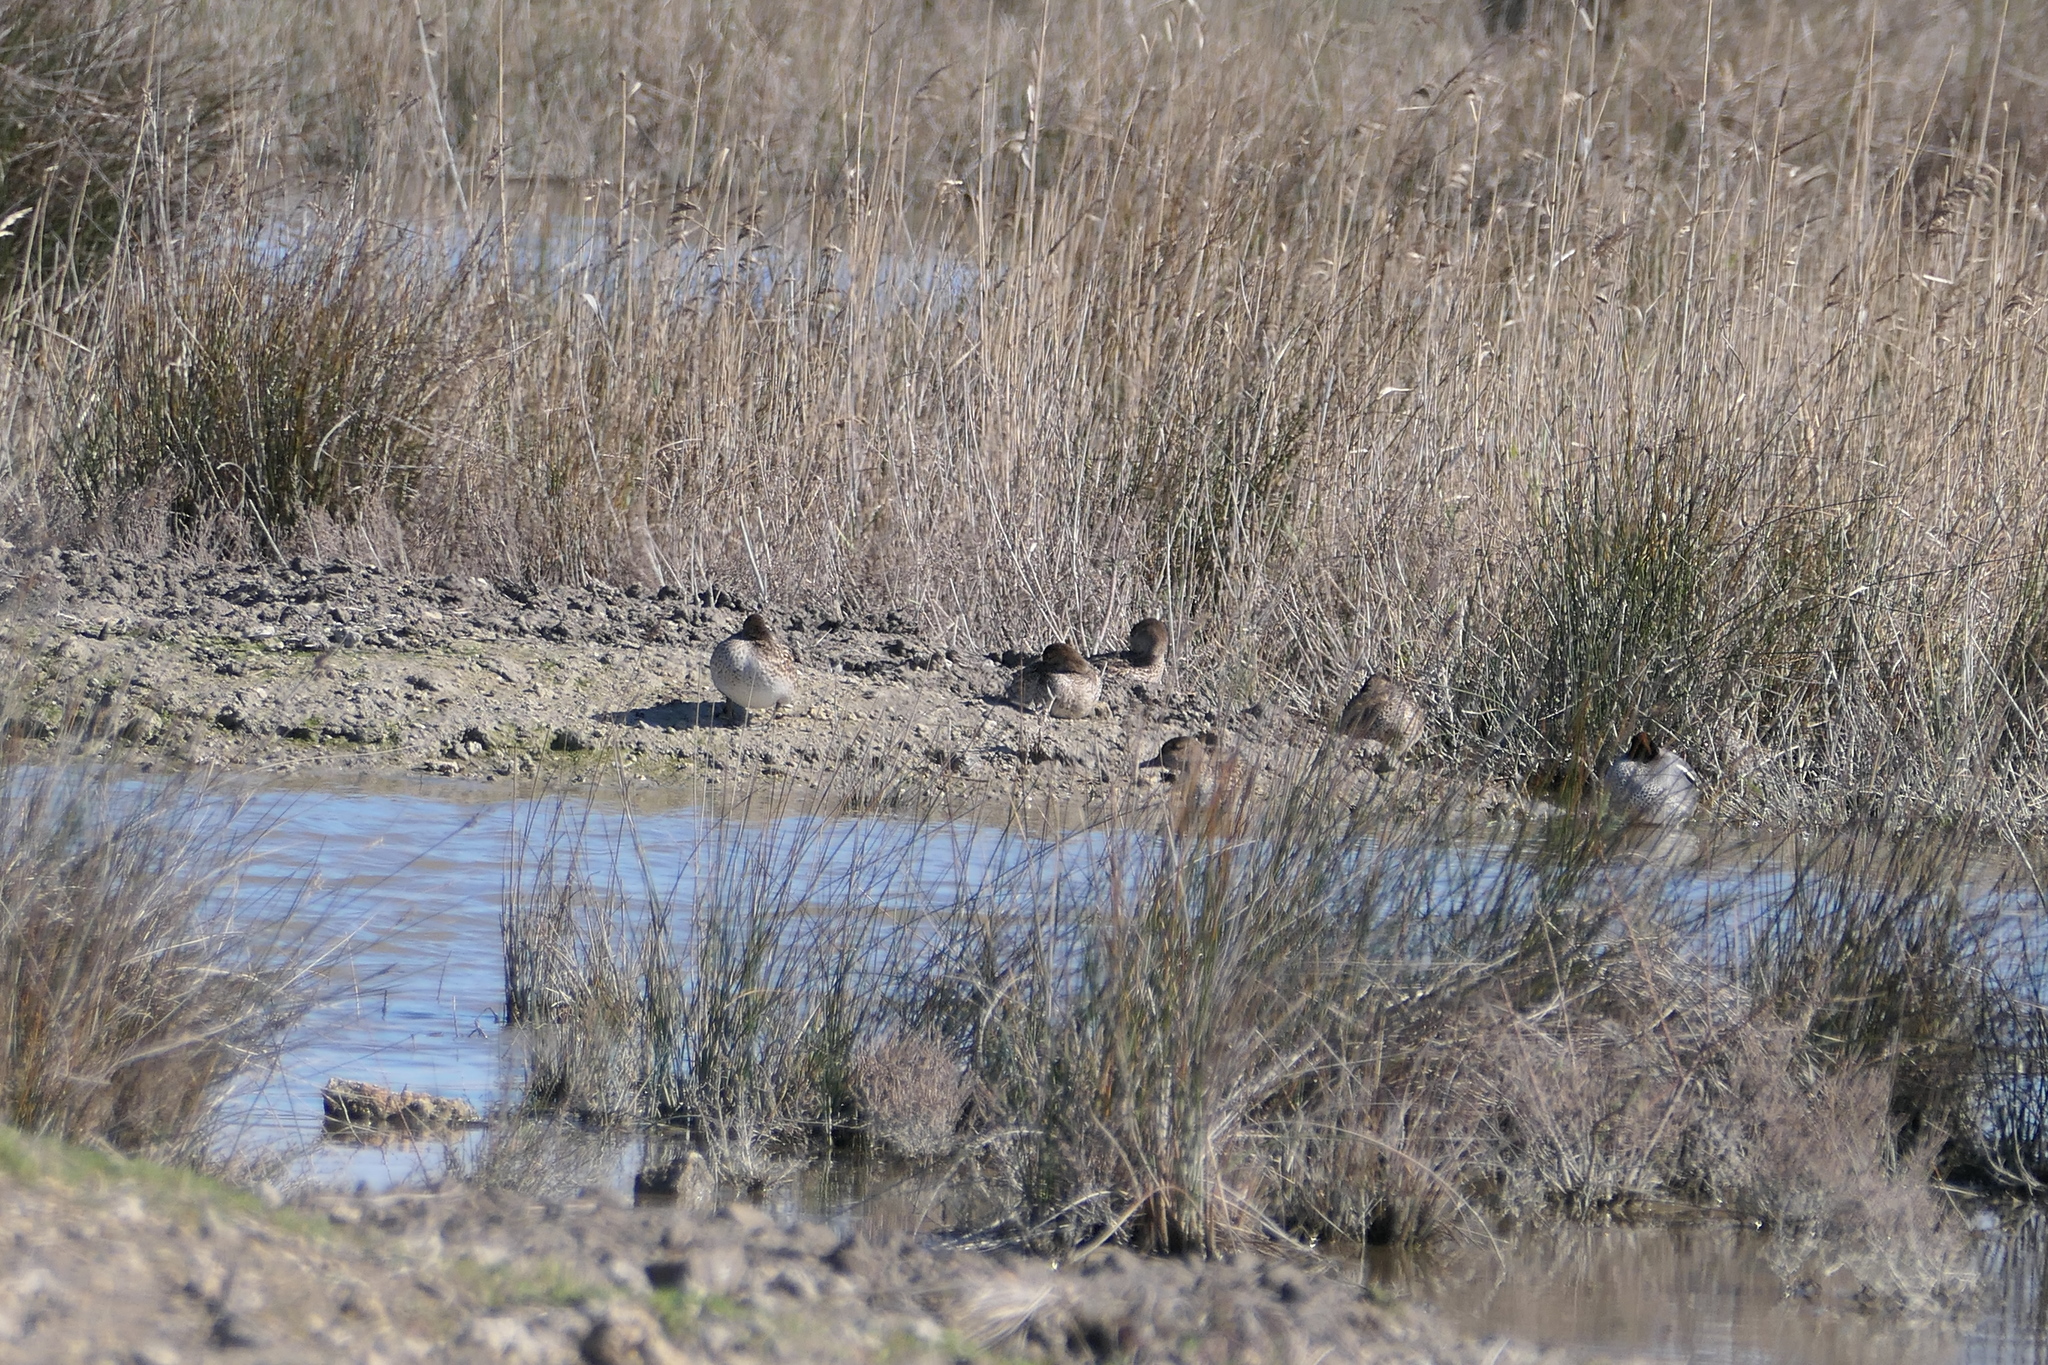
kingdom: Animalia
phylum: Chordata
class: Aves
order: Anseriformes
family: Anatidae
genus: Anas
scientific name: Anas crecca
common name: Eurasian teal
